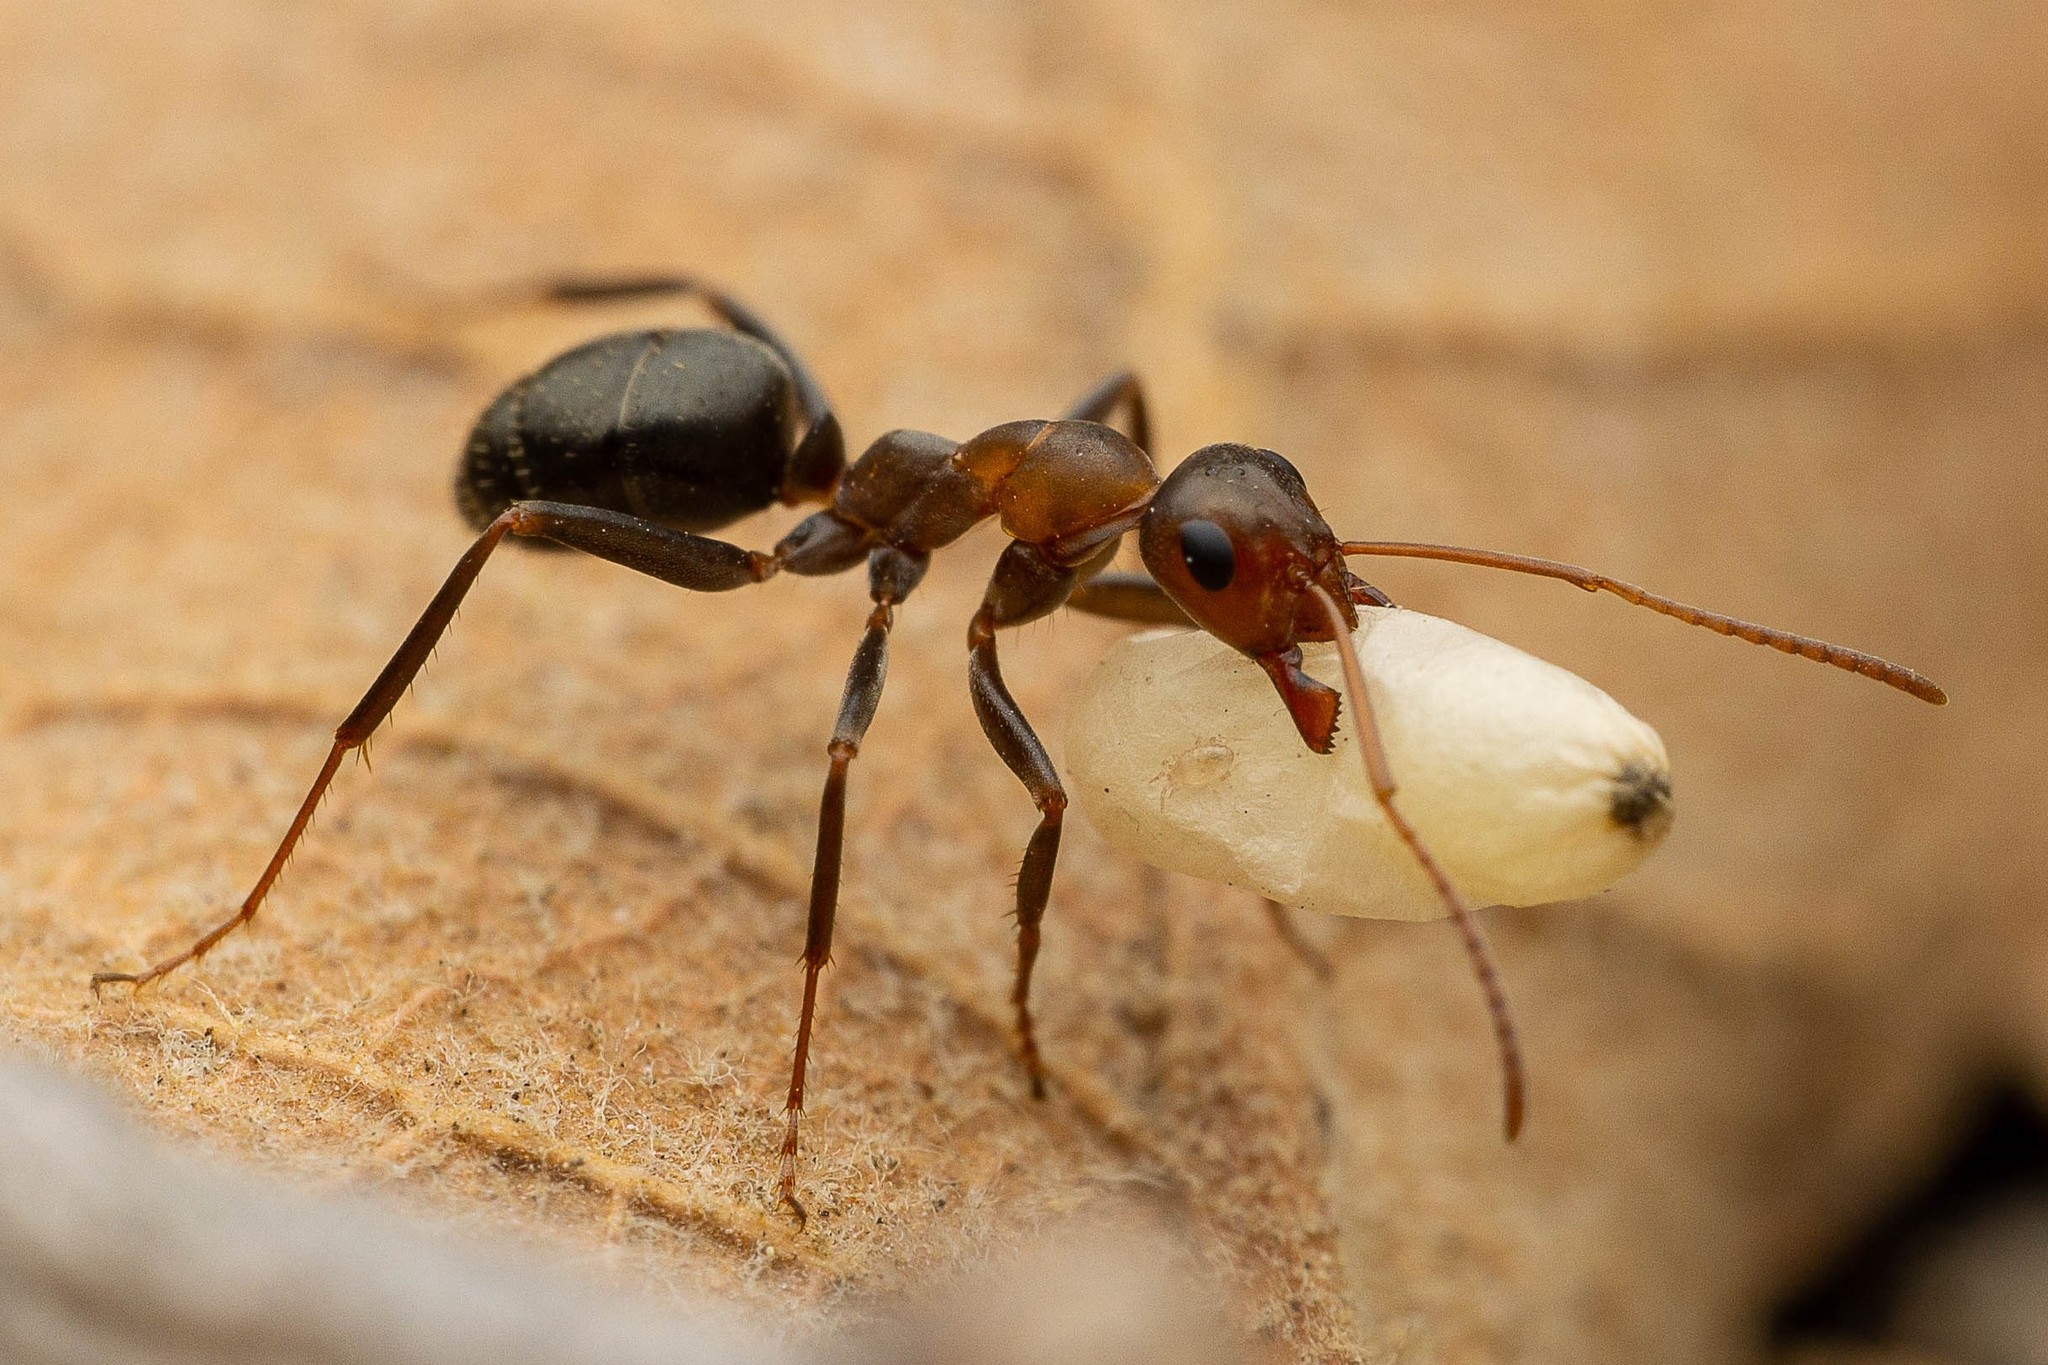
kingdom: Animalia
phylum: Arthropoda
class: Insecta
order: Hymenoptera
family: Formicidae
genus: Formica
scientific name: Formica foreliana
